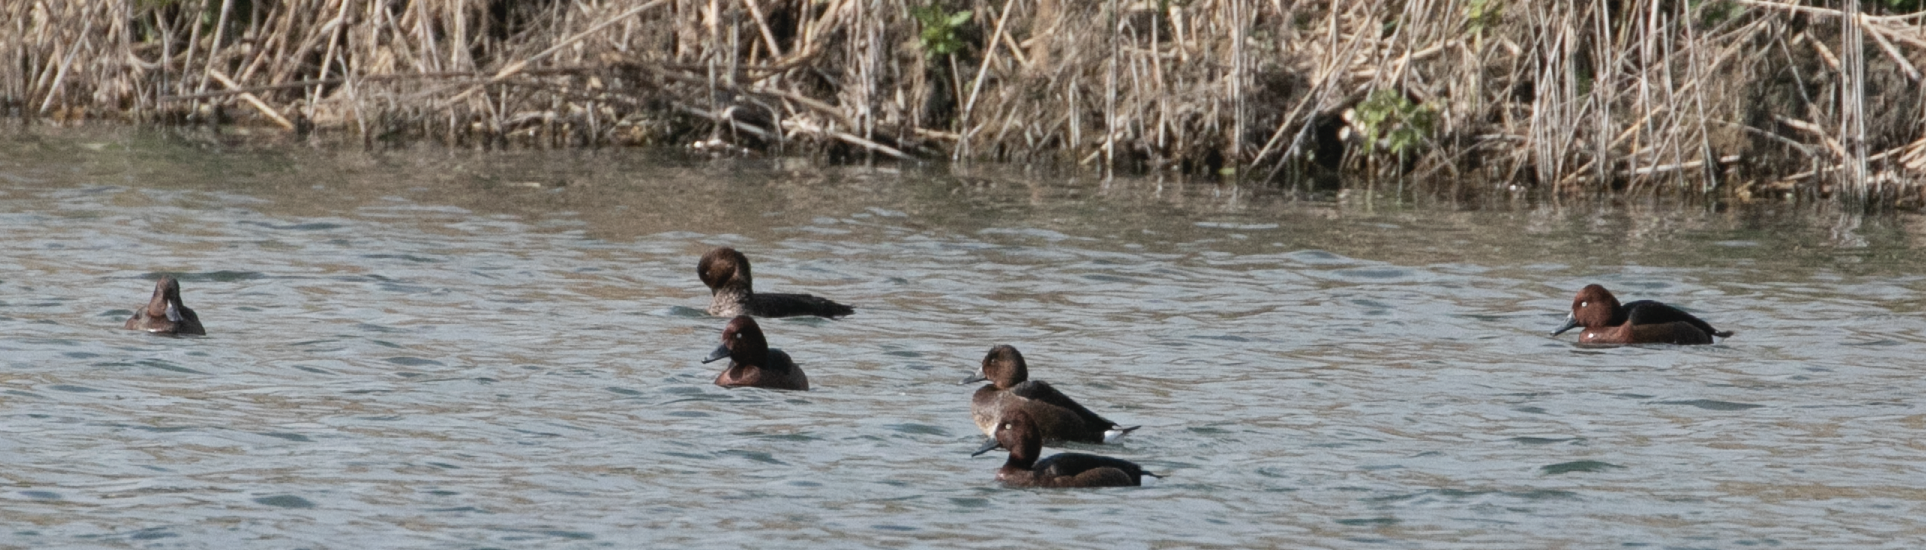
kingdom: Animalia
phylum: Chordata
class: Aves
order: Anseriformes
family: Anatidae
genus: Aythya
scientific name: Aythya nyroca
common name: Ferruginous duck
